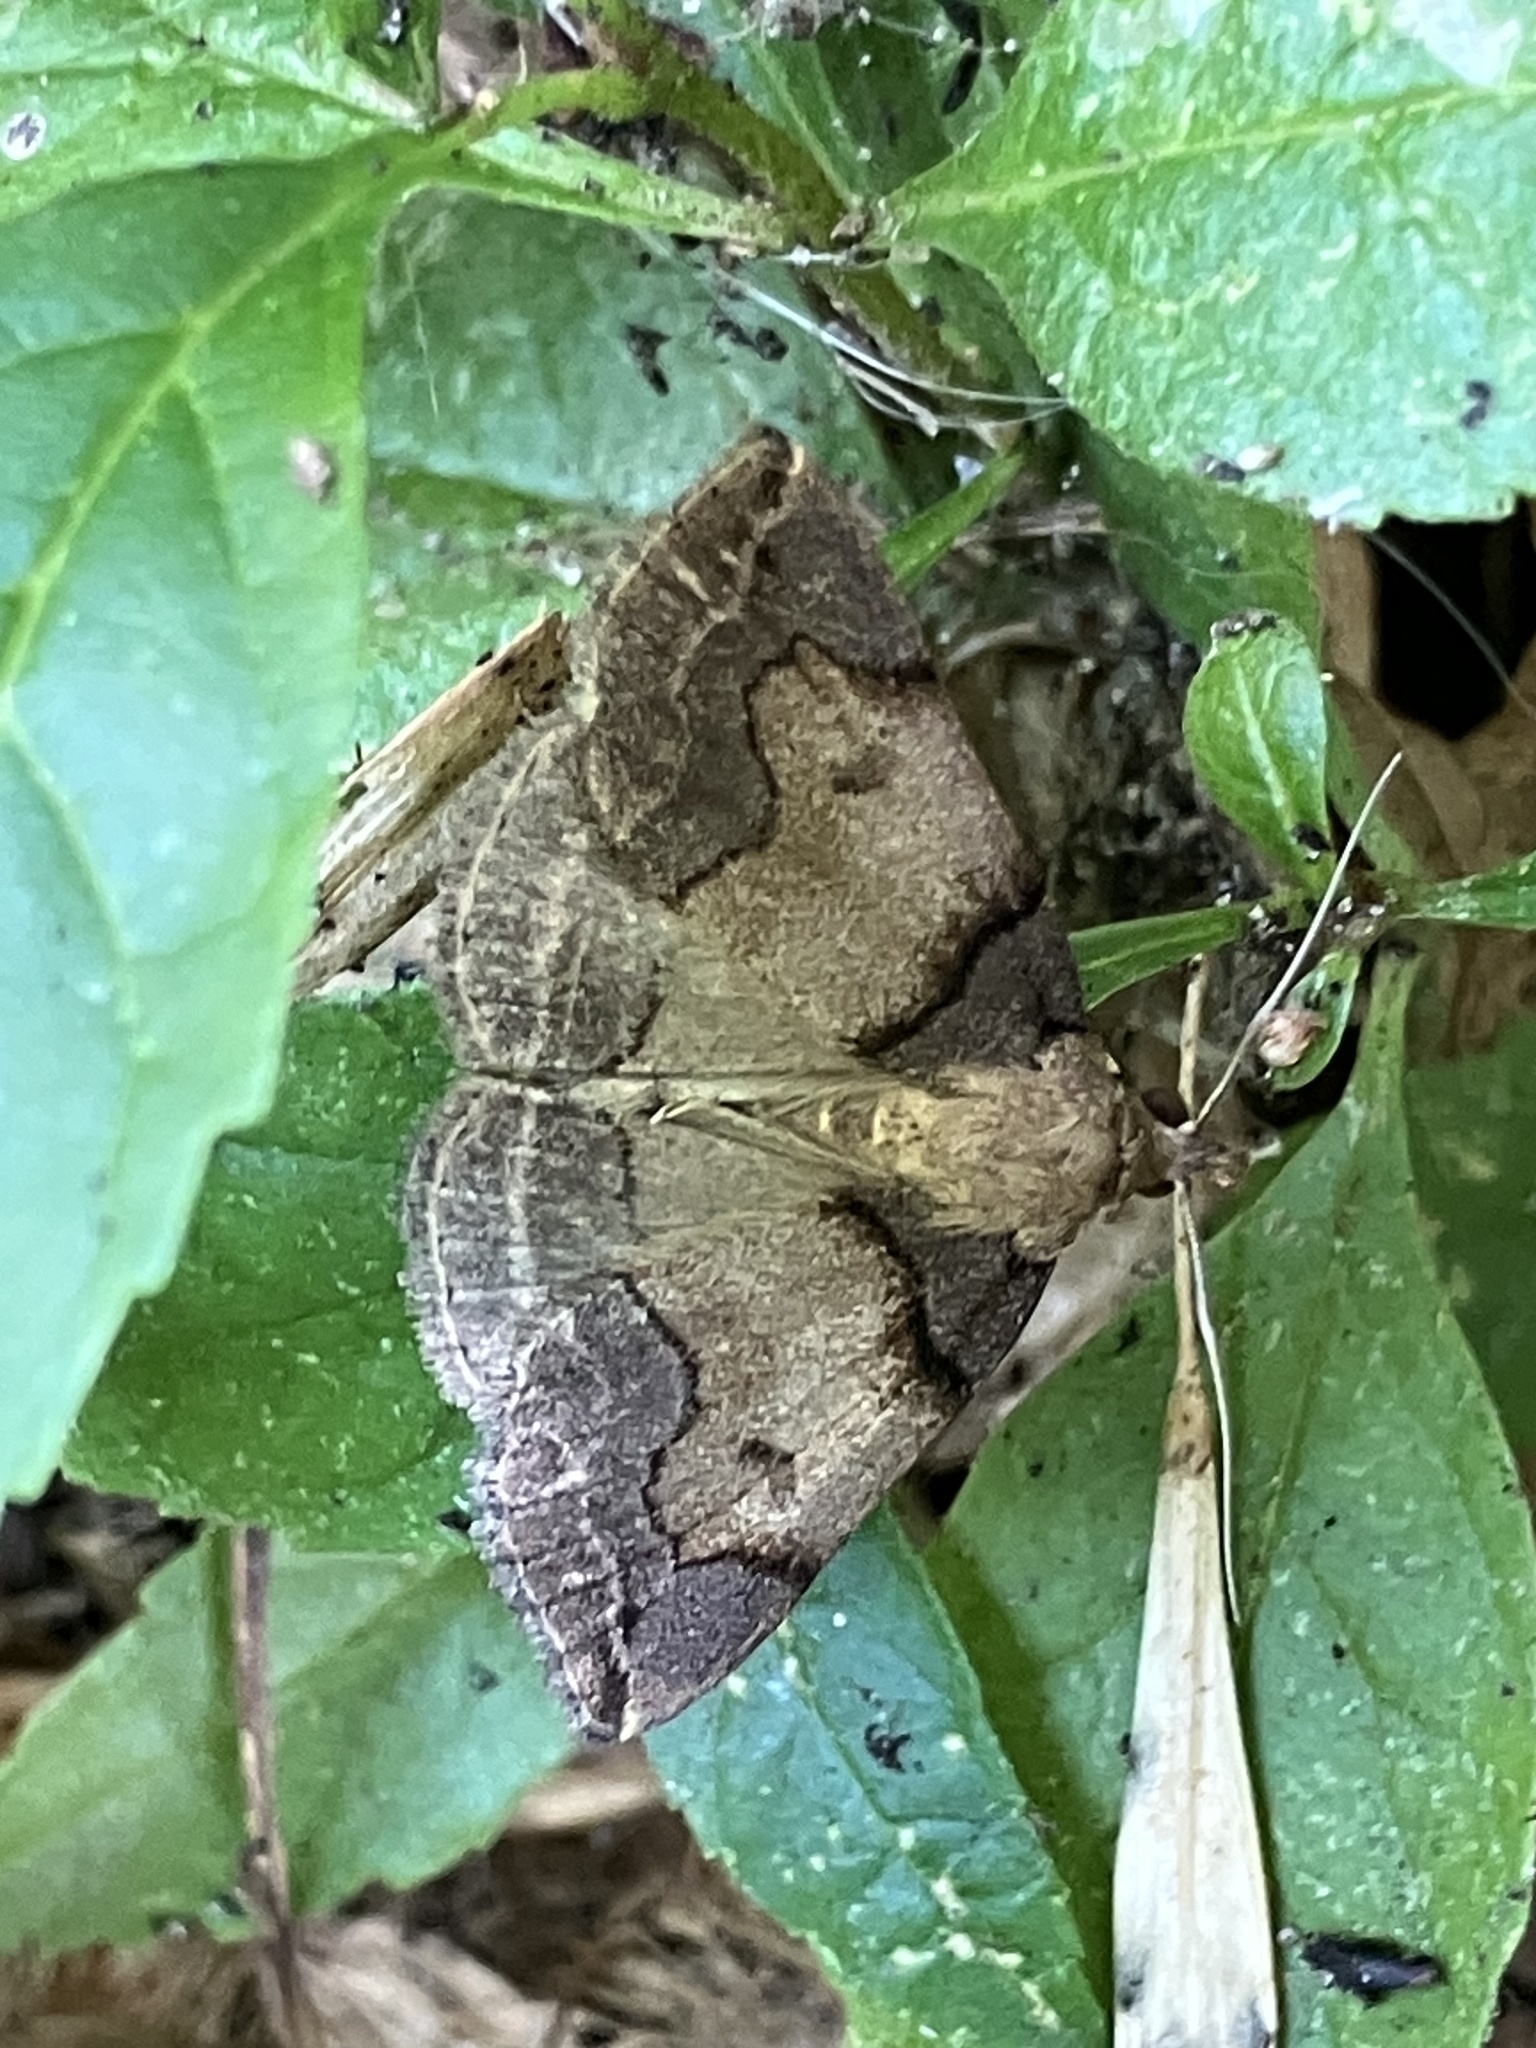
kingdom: Animalia
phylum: Arthropoda
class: Insecta
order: Lepidoptera
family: Erebidae
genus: Zanclognatha
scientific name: Zanclognatha laevigata
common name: Variable fan-foot
